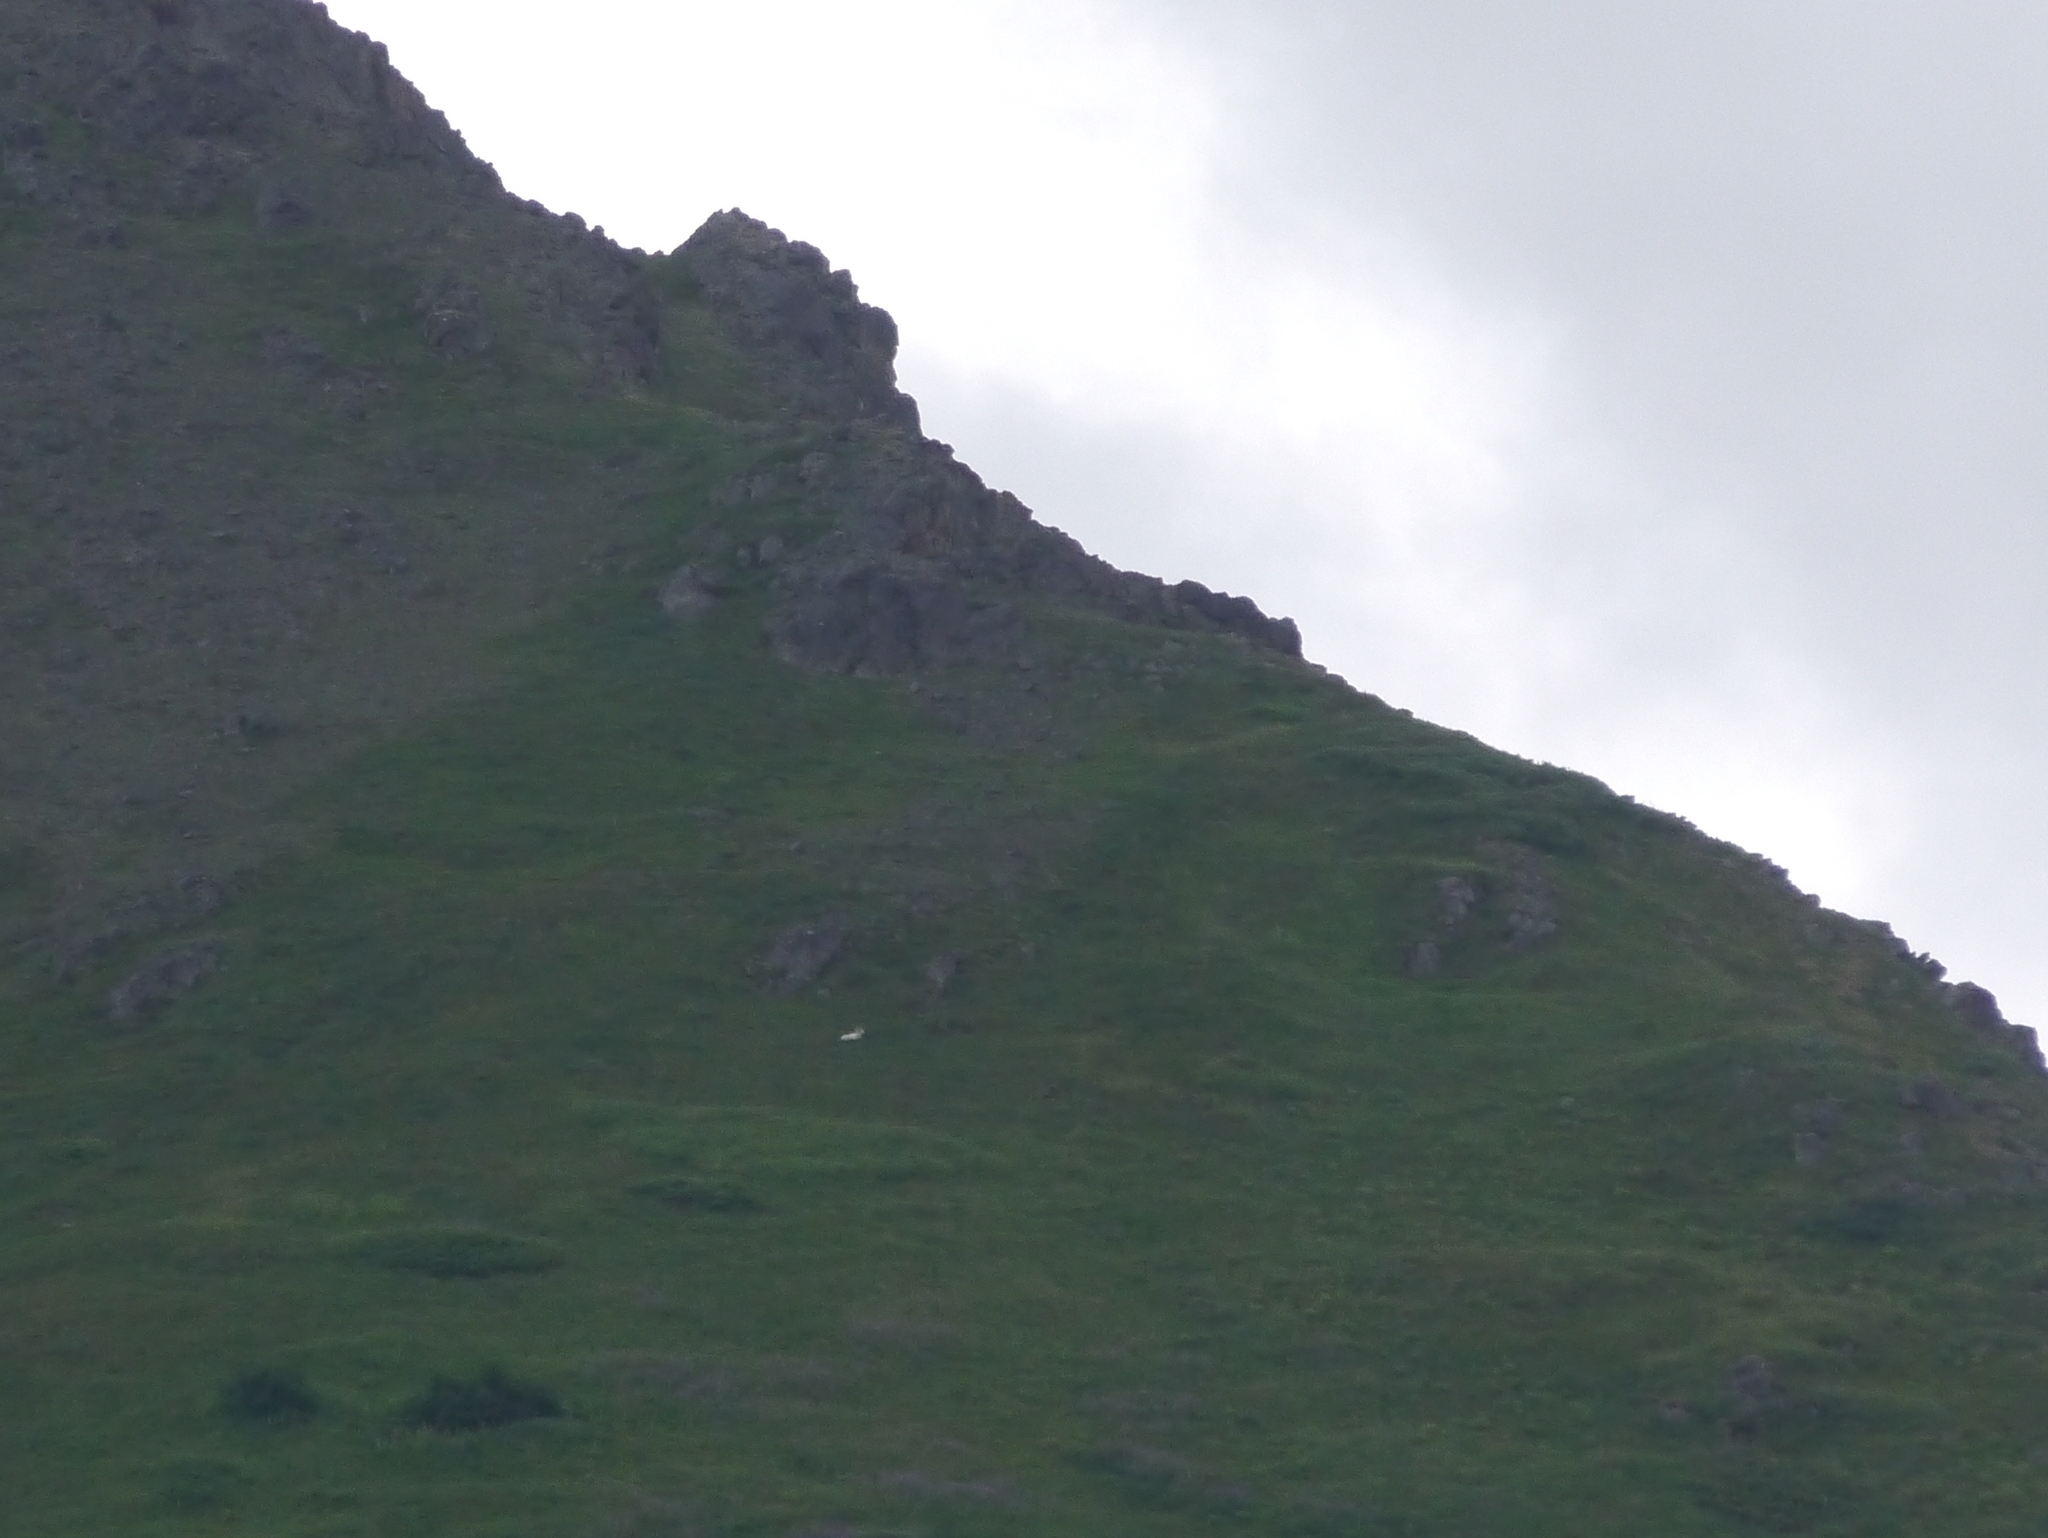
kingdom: Animalia
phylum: Chordata
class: Mammalia
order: Artiodactyla
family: Bovidae
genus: Ovis
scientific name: Ovis dalli
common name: Dall's sheep
